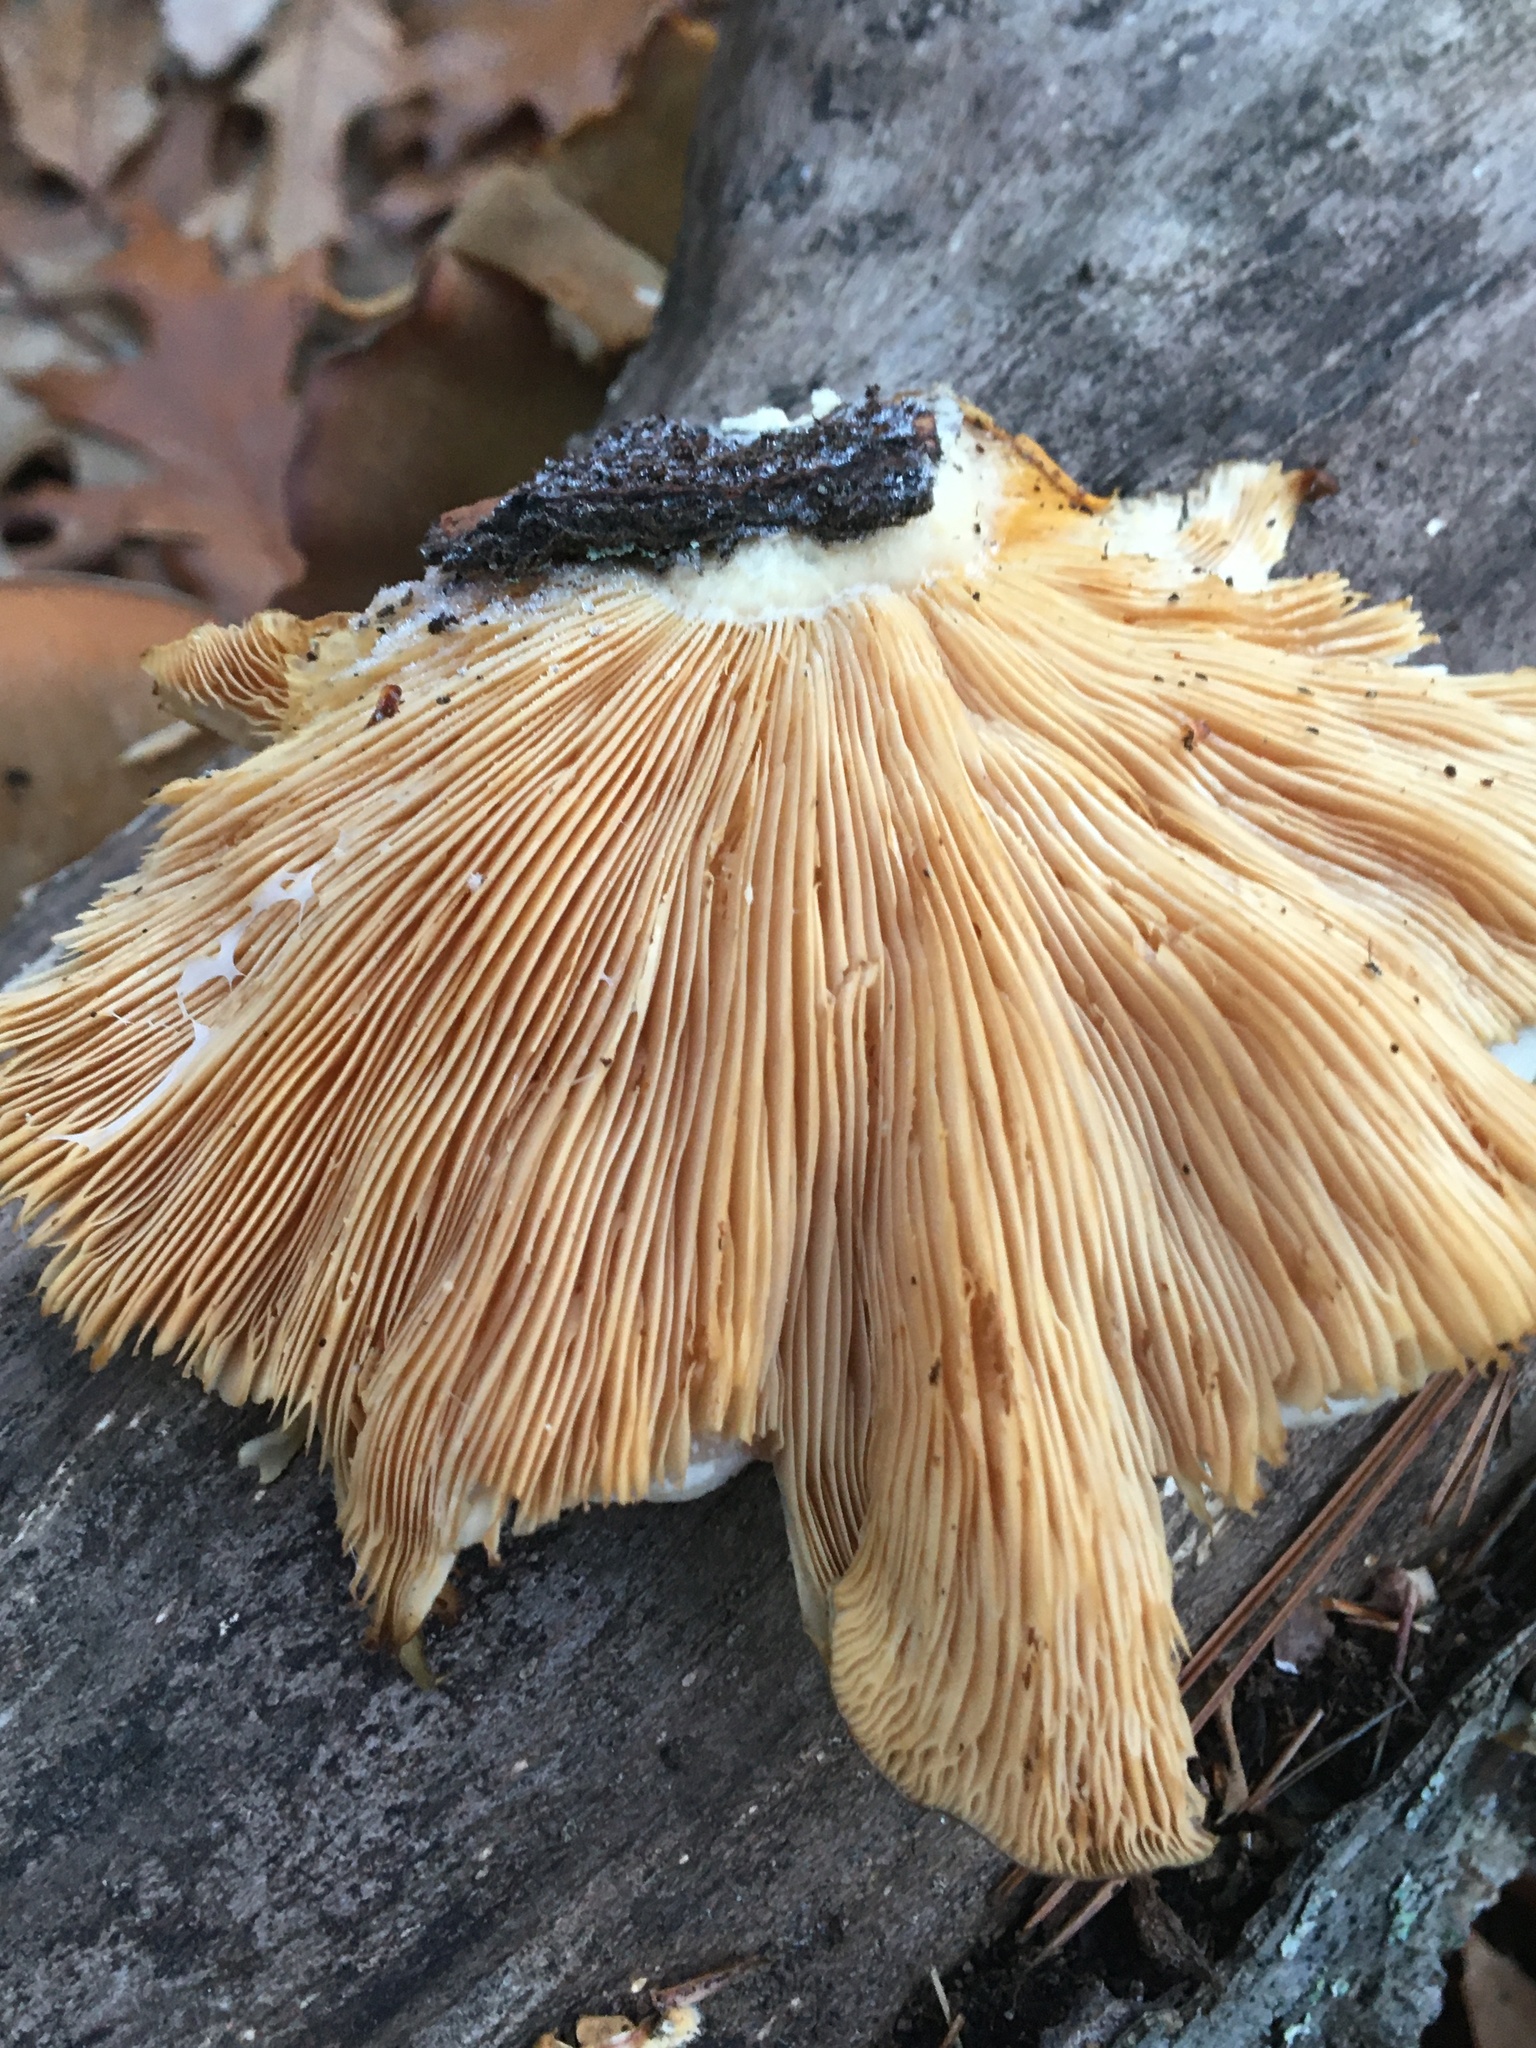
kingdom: Fungi
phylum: Basidiomycota
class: Agaricomycetes
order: Agaricales
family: Sarcomyxaceae
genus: Sarcomyxa
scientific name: Sarcomyxa serotina
